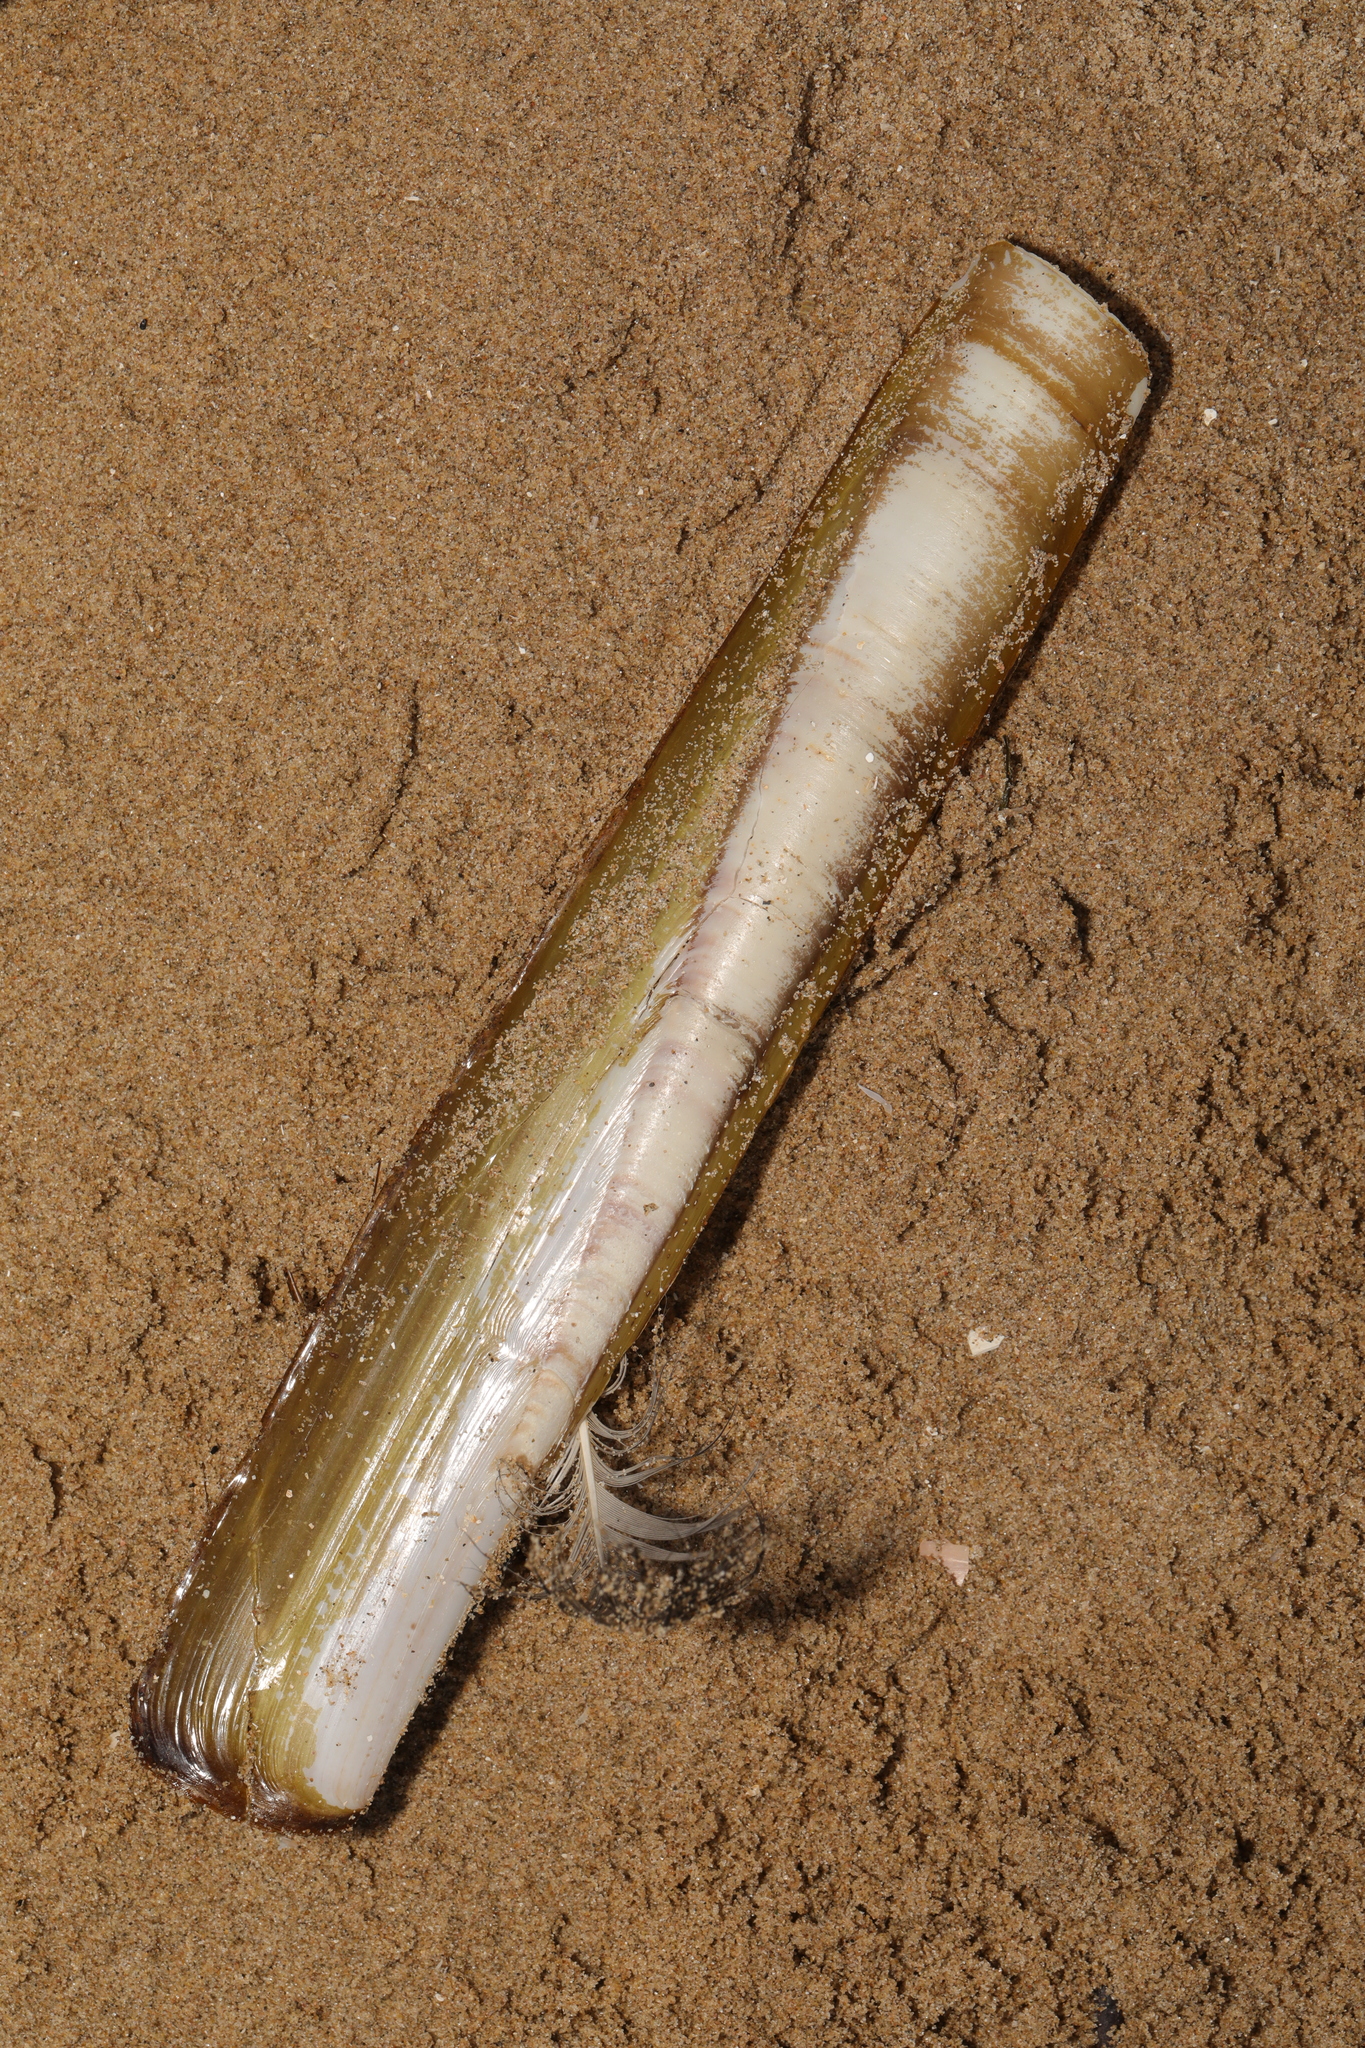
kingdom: Animalia
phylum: Mollusca
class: Bivalvia
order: Adapedonta
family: Pharidae
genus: Ensis
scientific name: Ensis siliqua
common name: Pod razor shell
